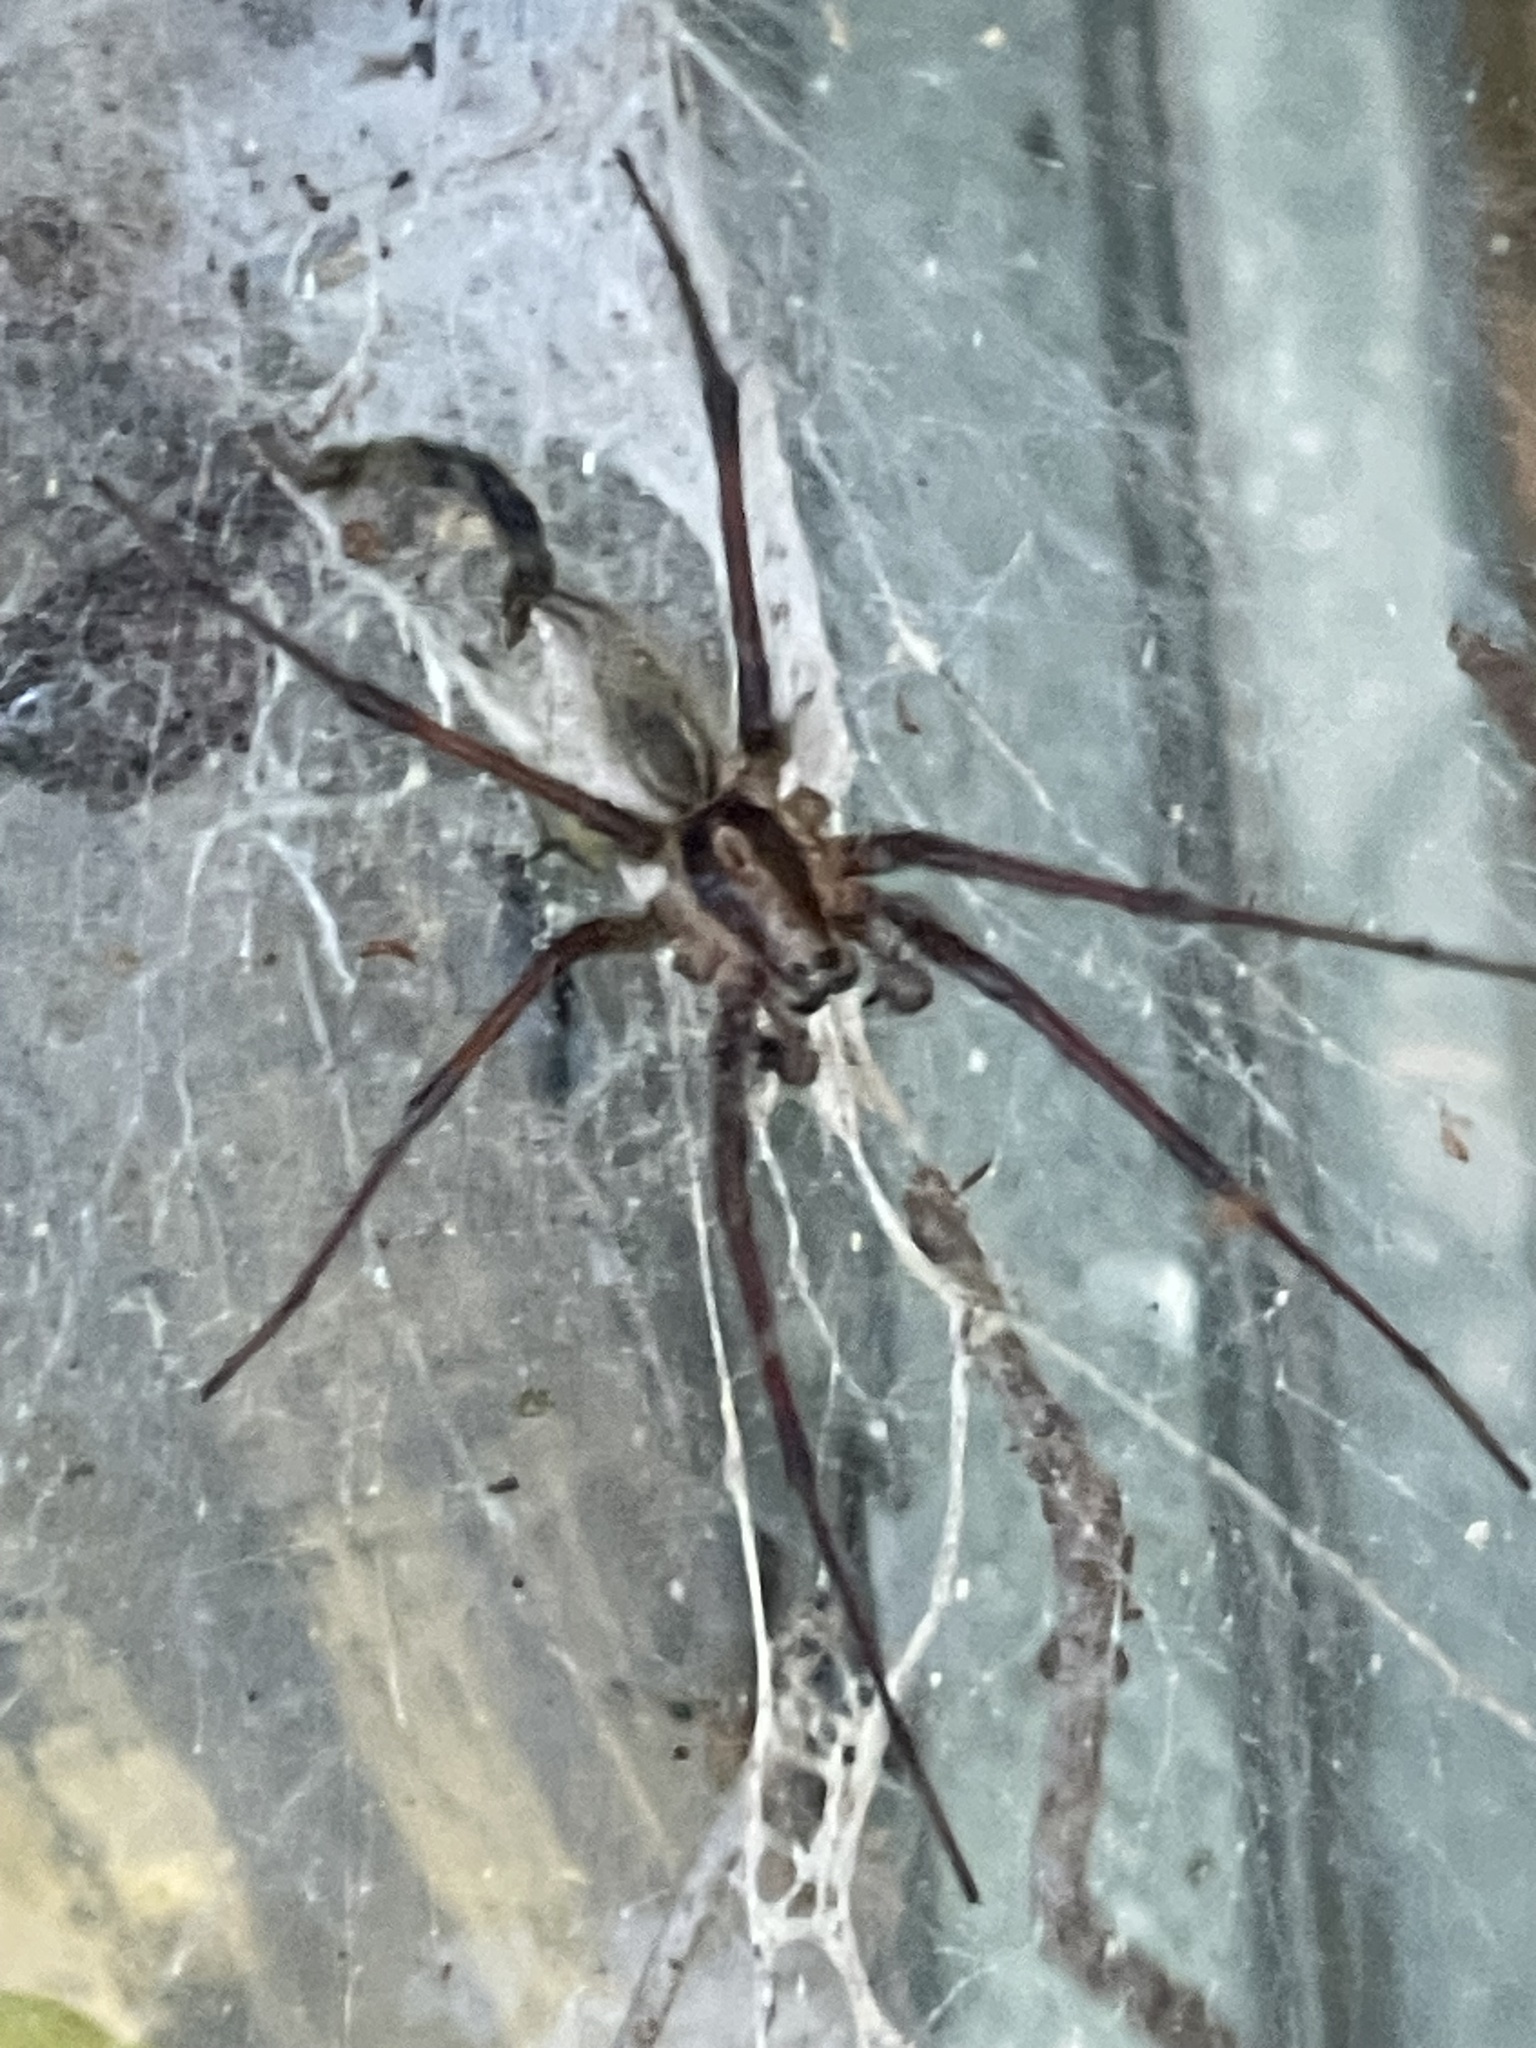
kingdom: Animalia
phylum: Arthropoda
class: Arachnida
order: Araneae
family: Agelenidae
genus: Agelenopsis
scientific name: Agelenopsis
